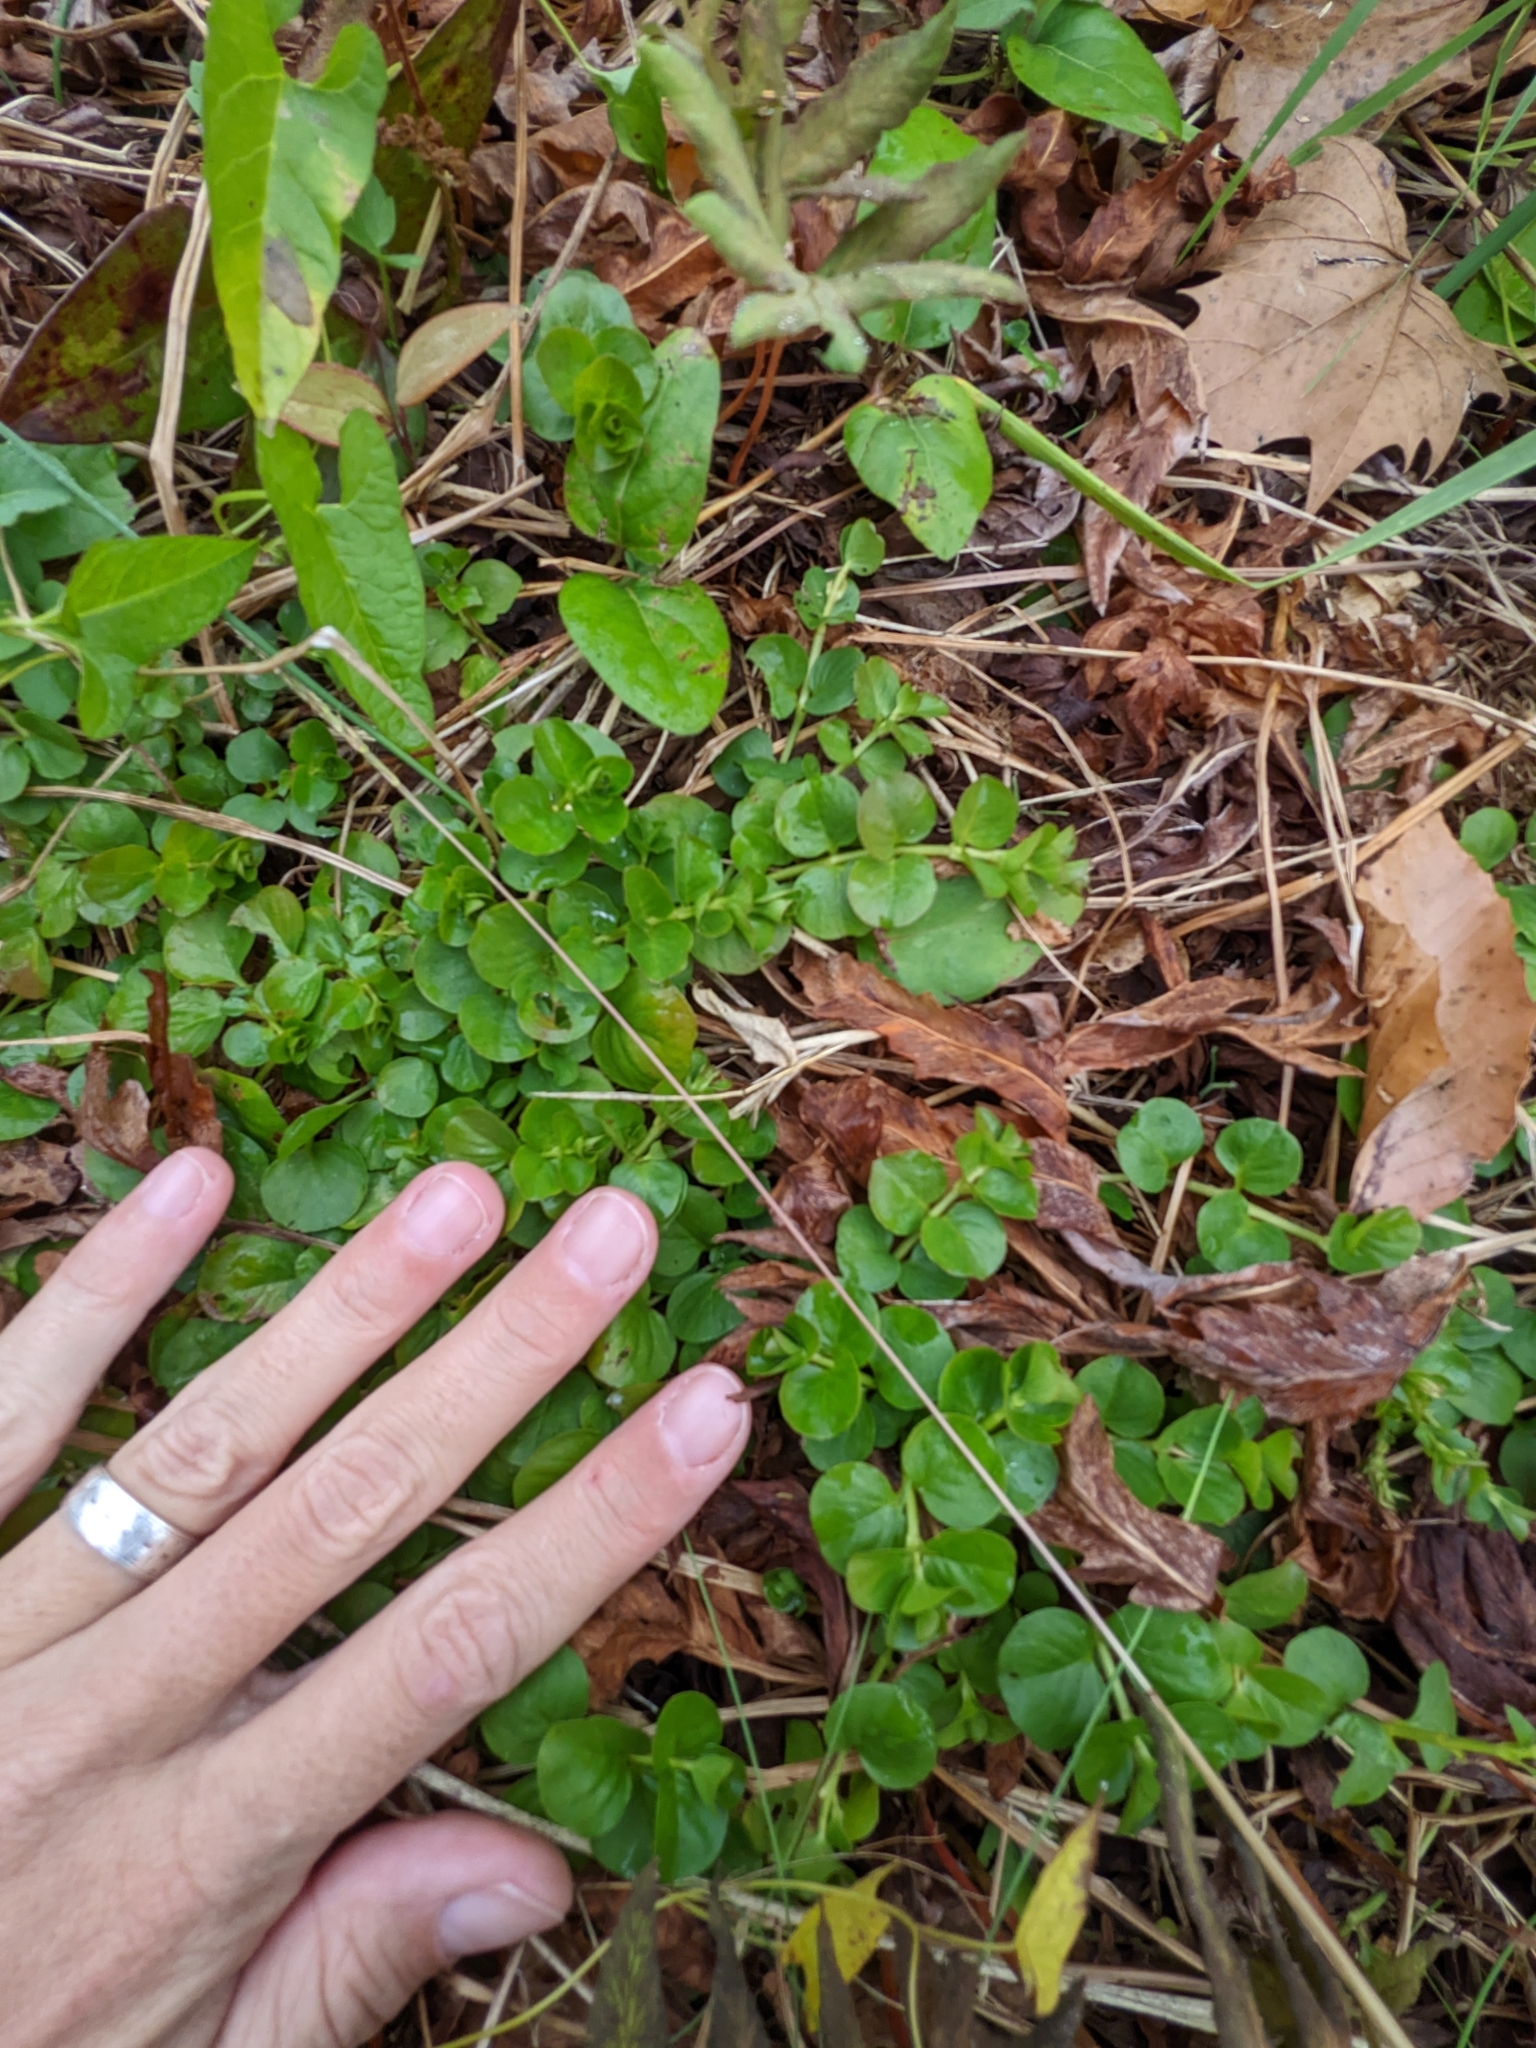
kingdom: Plantae
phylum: Tracheophyta
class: Magnoliopsida
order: Ericales
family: Primulaceae
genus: Lysimachia
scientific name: Lysimachia nummularia
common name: Moneywort
